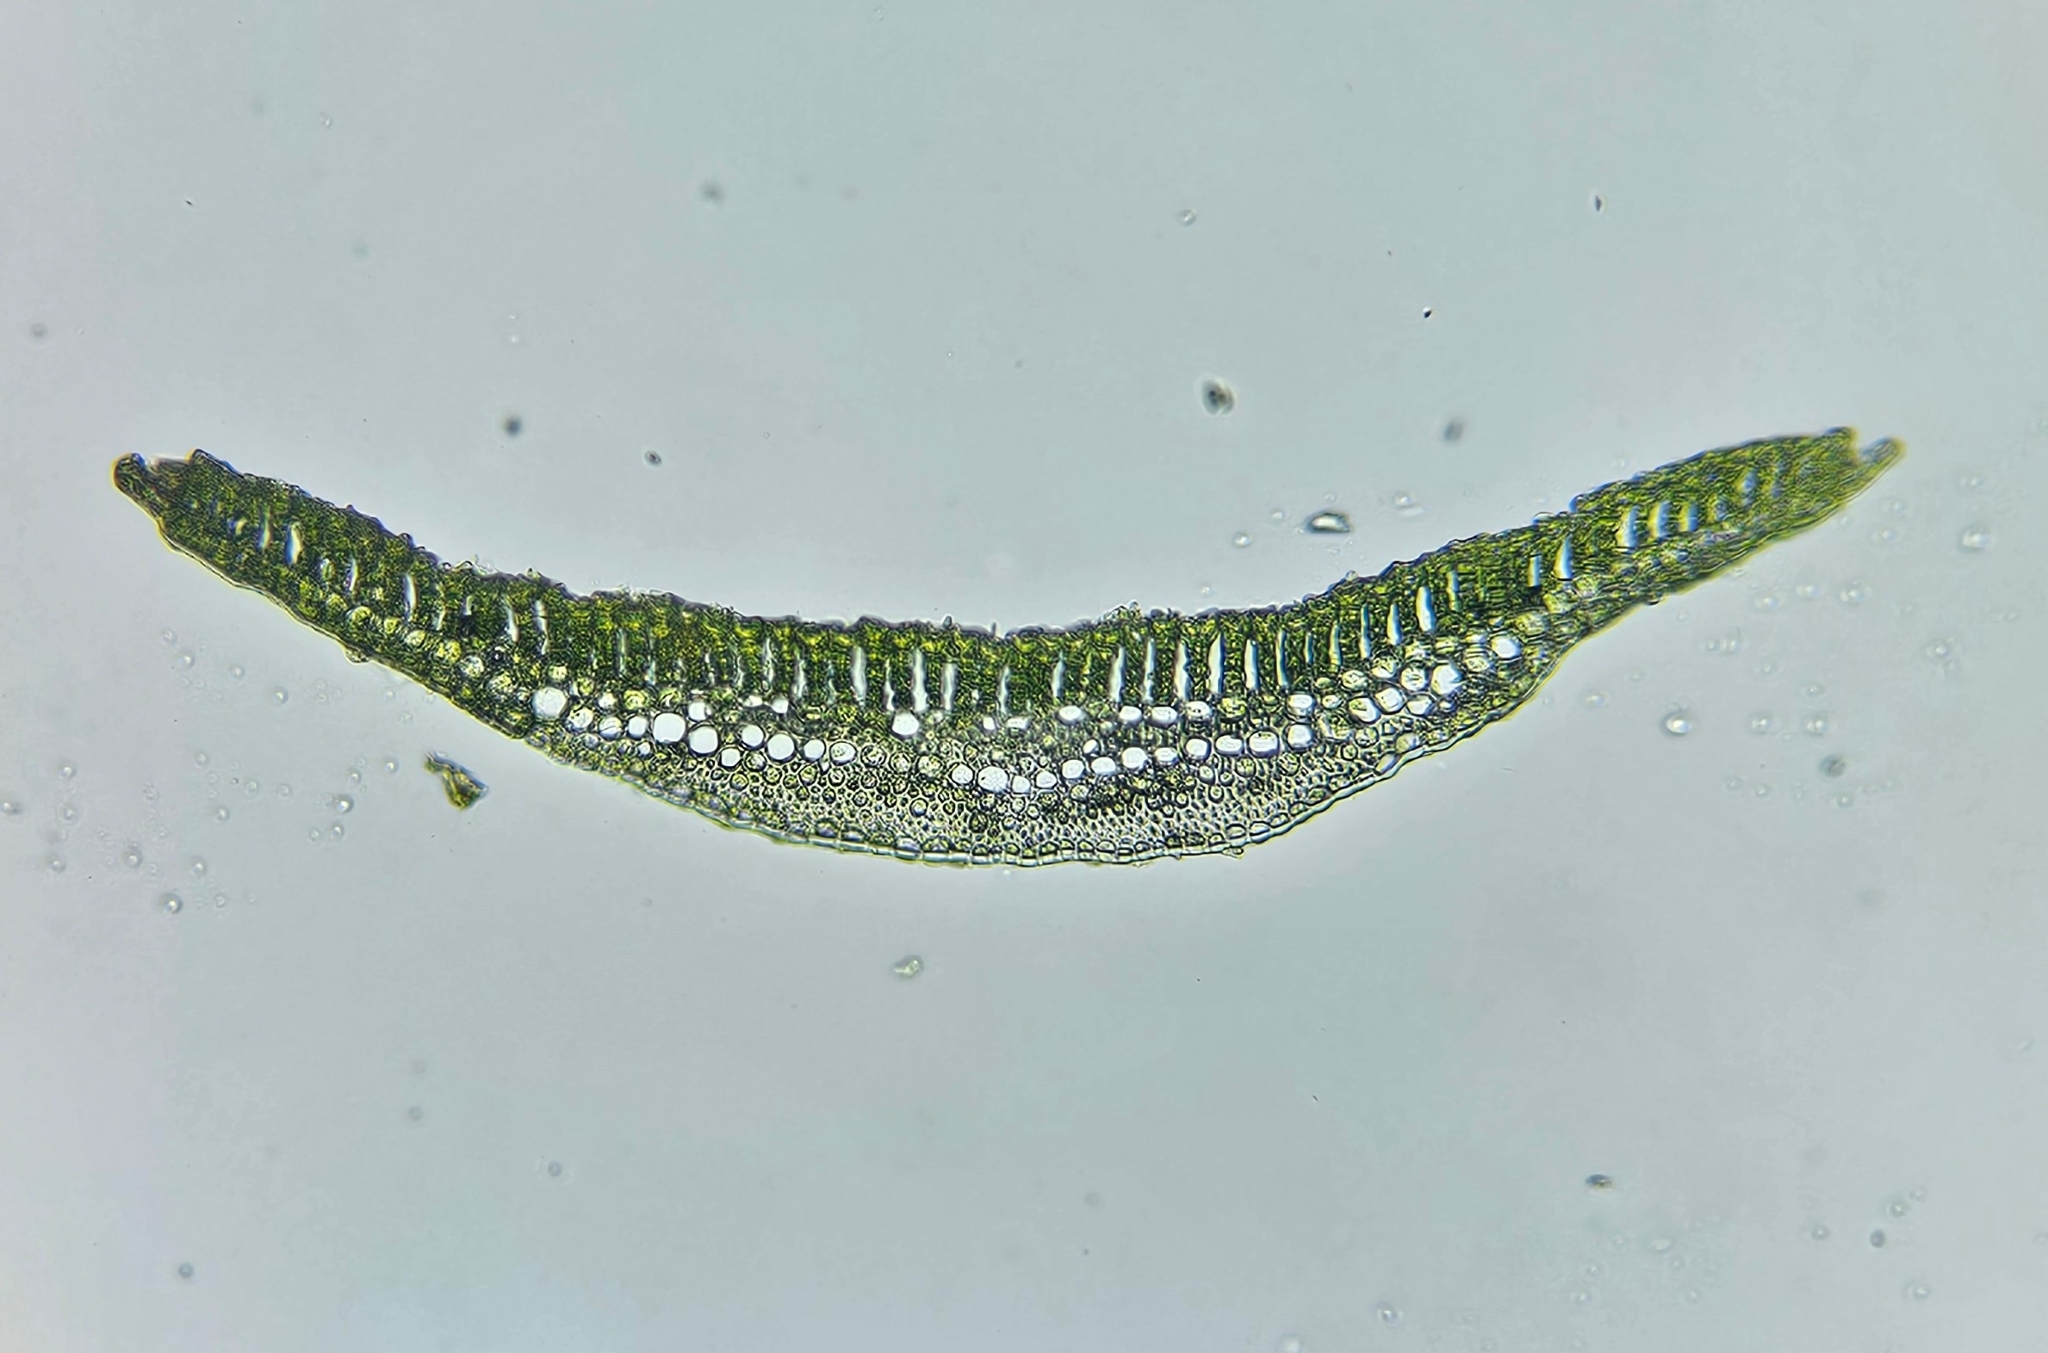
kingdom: Plantae
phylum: Bryophyta
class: Polytrichopsida
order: Polytrichales
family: Polytrichaceae
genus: Polytrichum
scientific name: Polytrichum commune
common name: Common haircap
